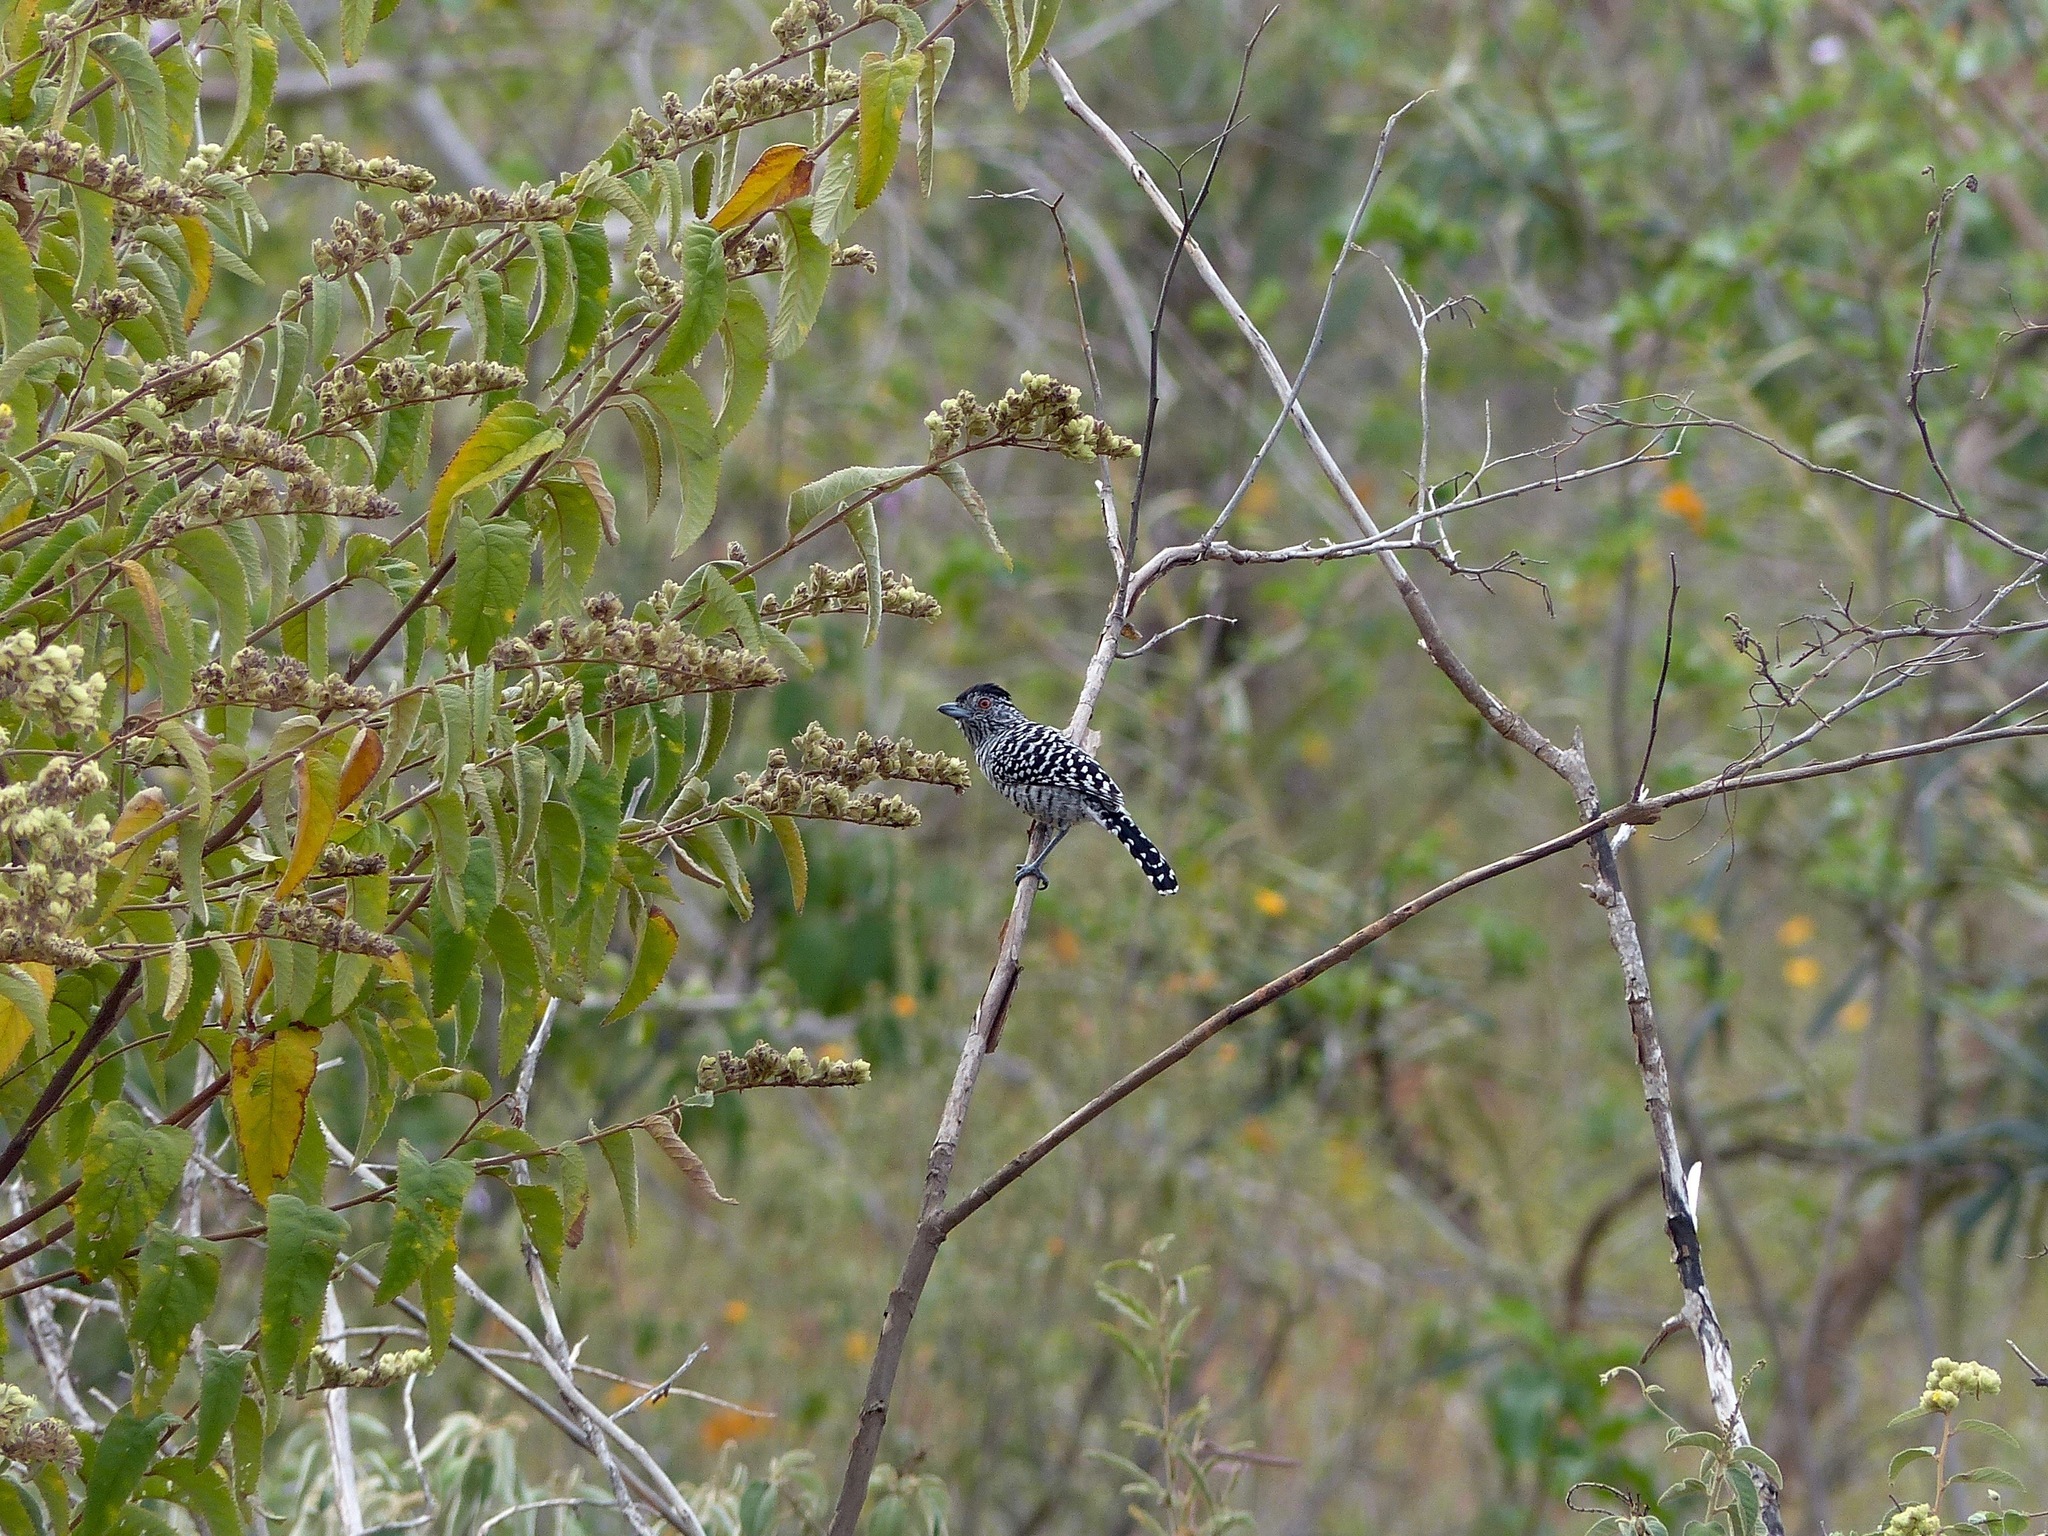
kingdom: Animalia
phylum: Chordata
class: Aves
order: Passeriformes
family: Thamnophilidae
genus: Thamnophilus
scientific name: Thamnophilus doliatus
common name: Barred antshrike
